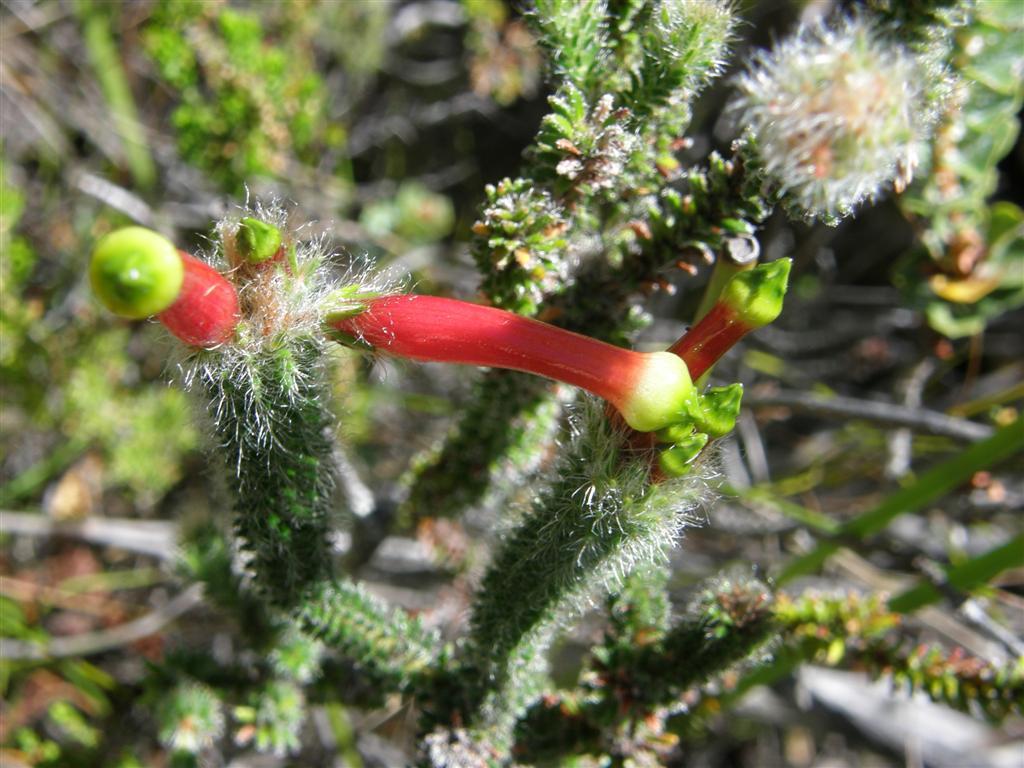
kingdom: Plantae
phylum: Tracheophyta
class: Magnoliopsida
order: Ericales
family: Ericaceae
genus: Erica
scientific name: Erica massonii
